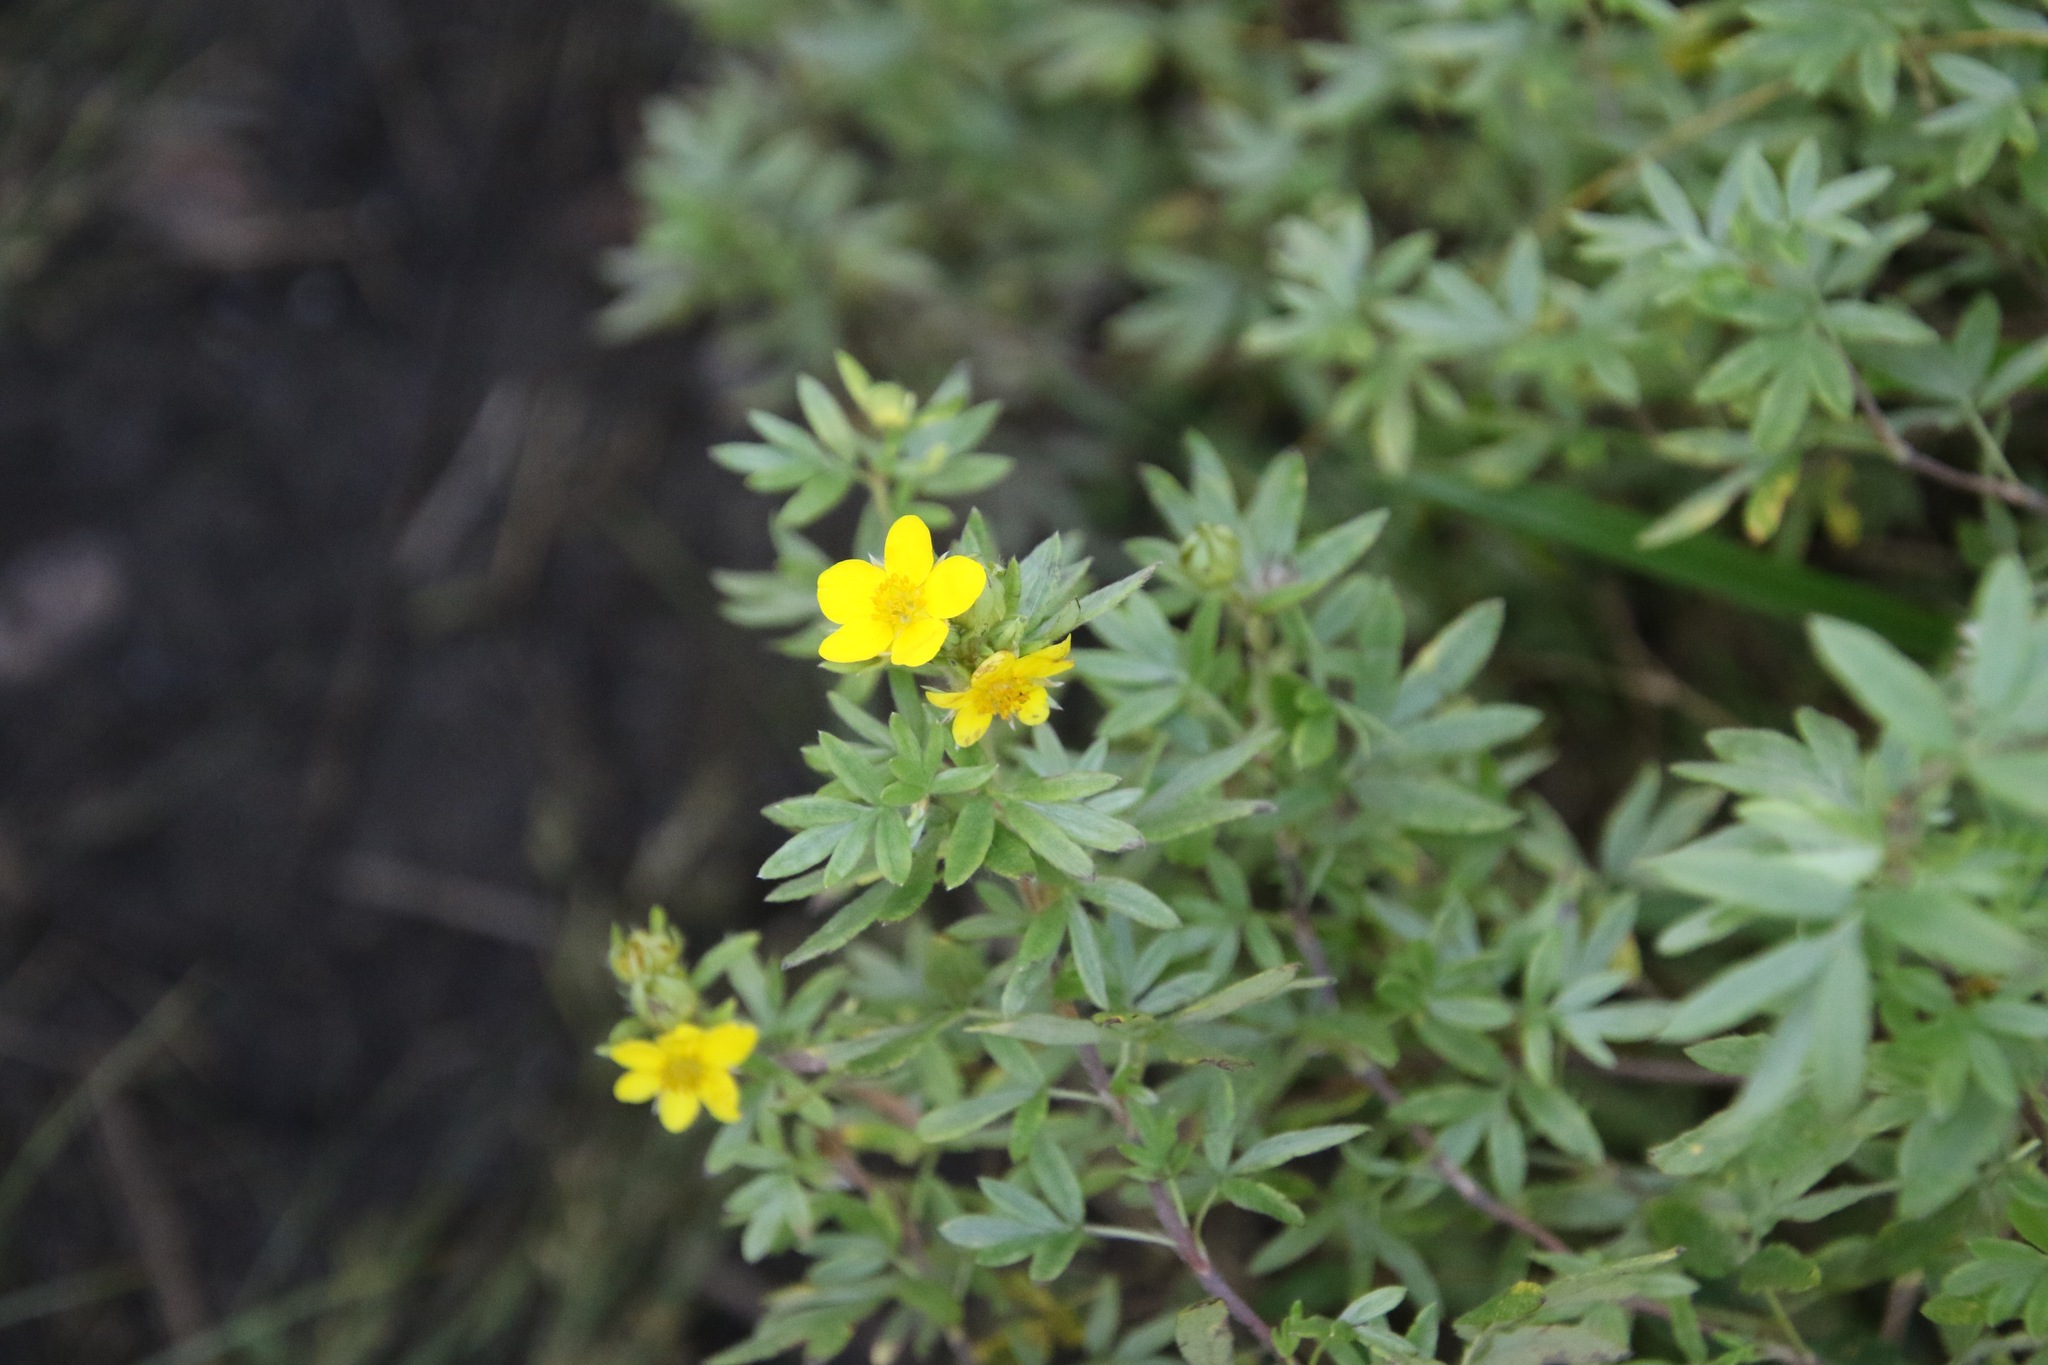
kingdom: Plantae
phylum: Tracheophyta
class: Magnoliopsida
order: Rosales
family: Rosaceae
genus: Dasiphora
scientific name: Dasiphora fruticosa
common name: Shrubby cinquefoil
